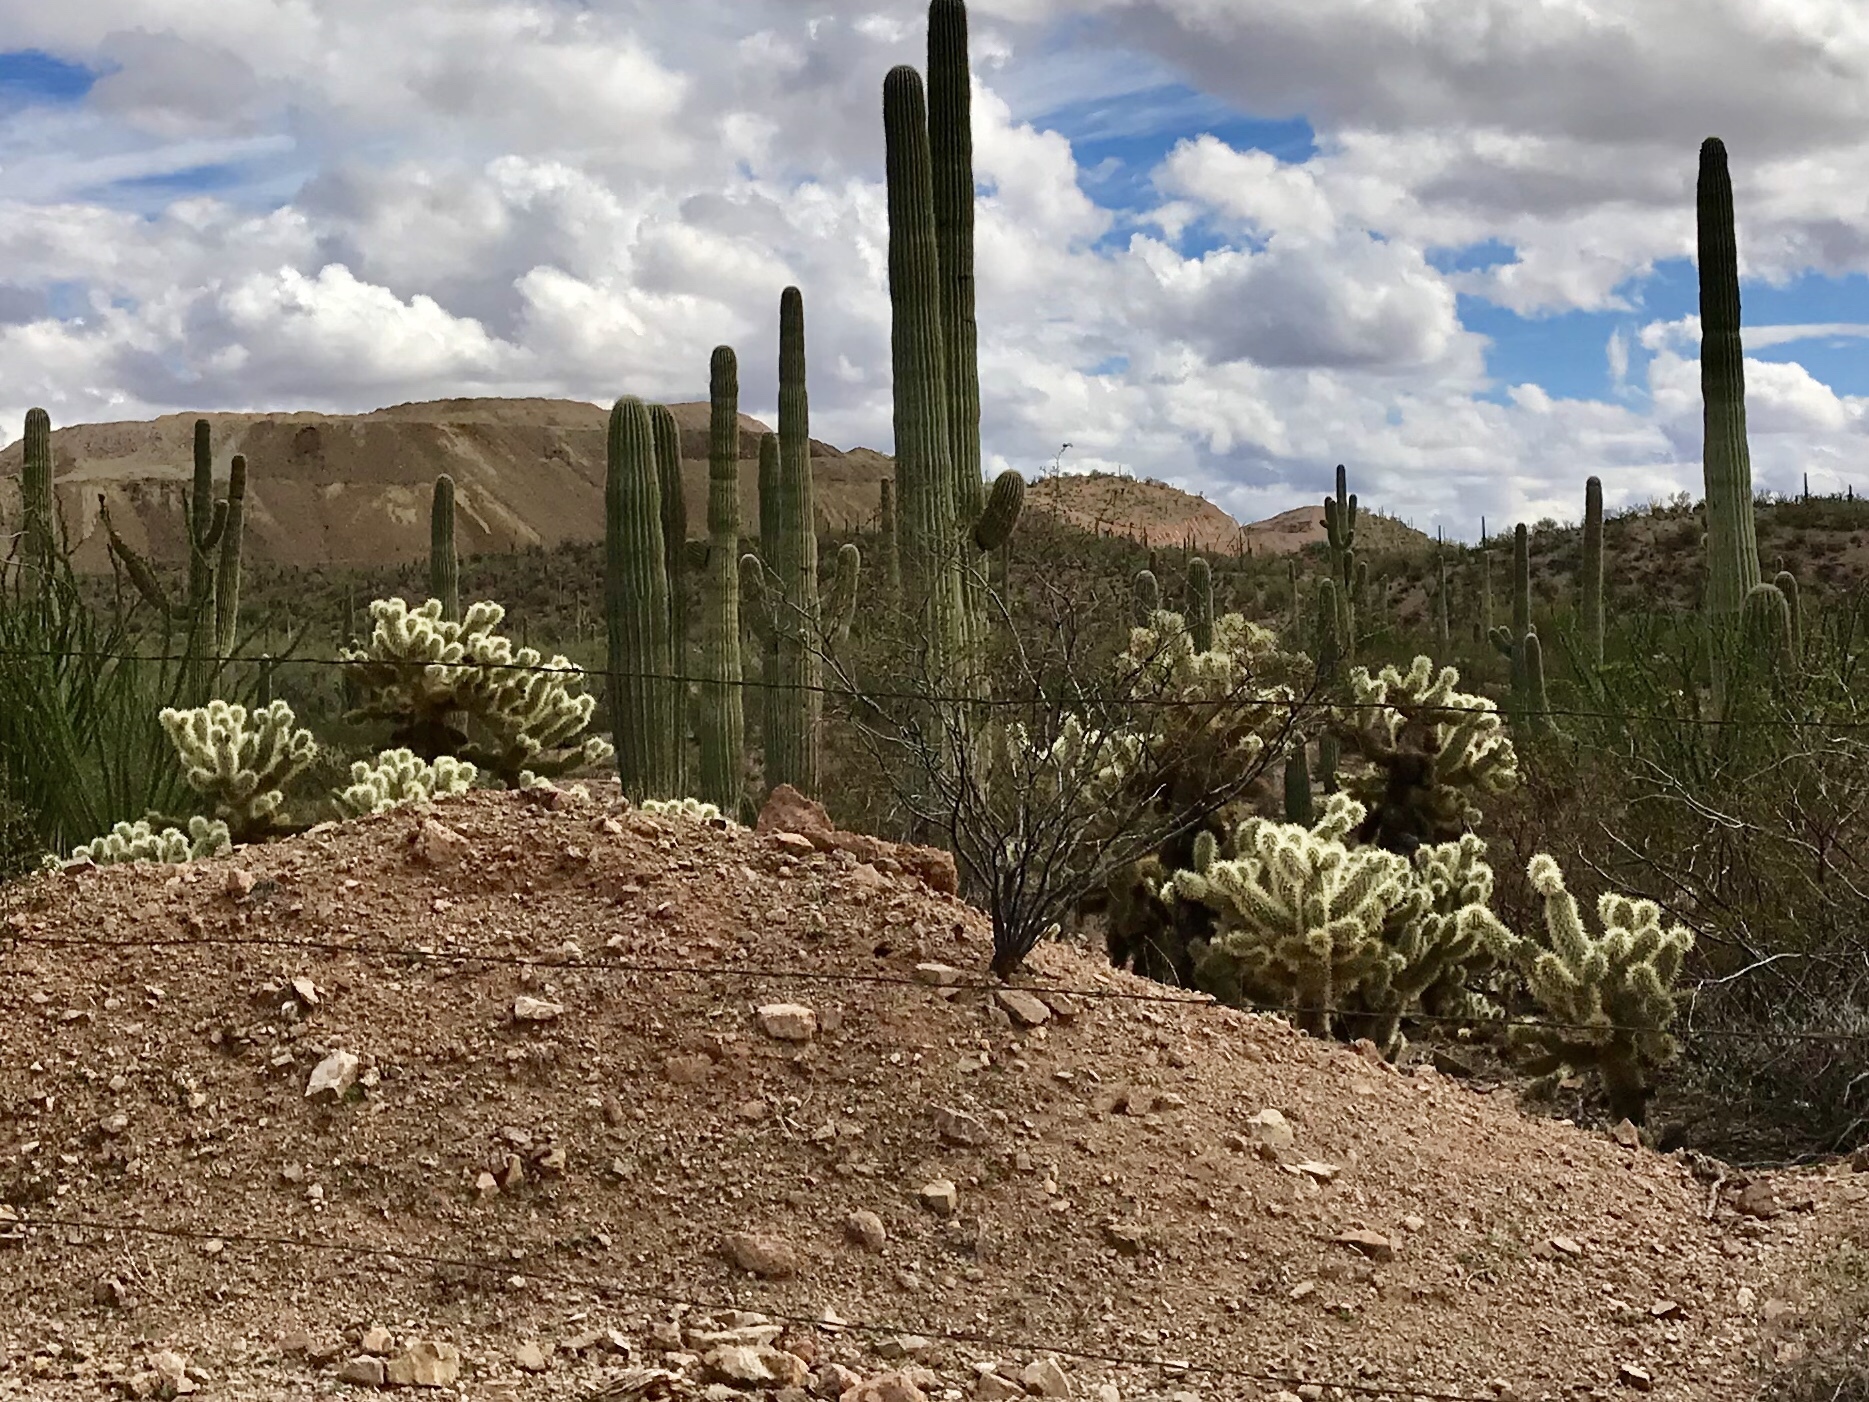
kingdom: Plantae
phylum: Tracheophyta
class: Magnoliopsida
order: Caryophyllales
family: Cactaceae
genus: Cylindropuntia
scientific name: Cylindropuntia fosbergii
